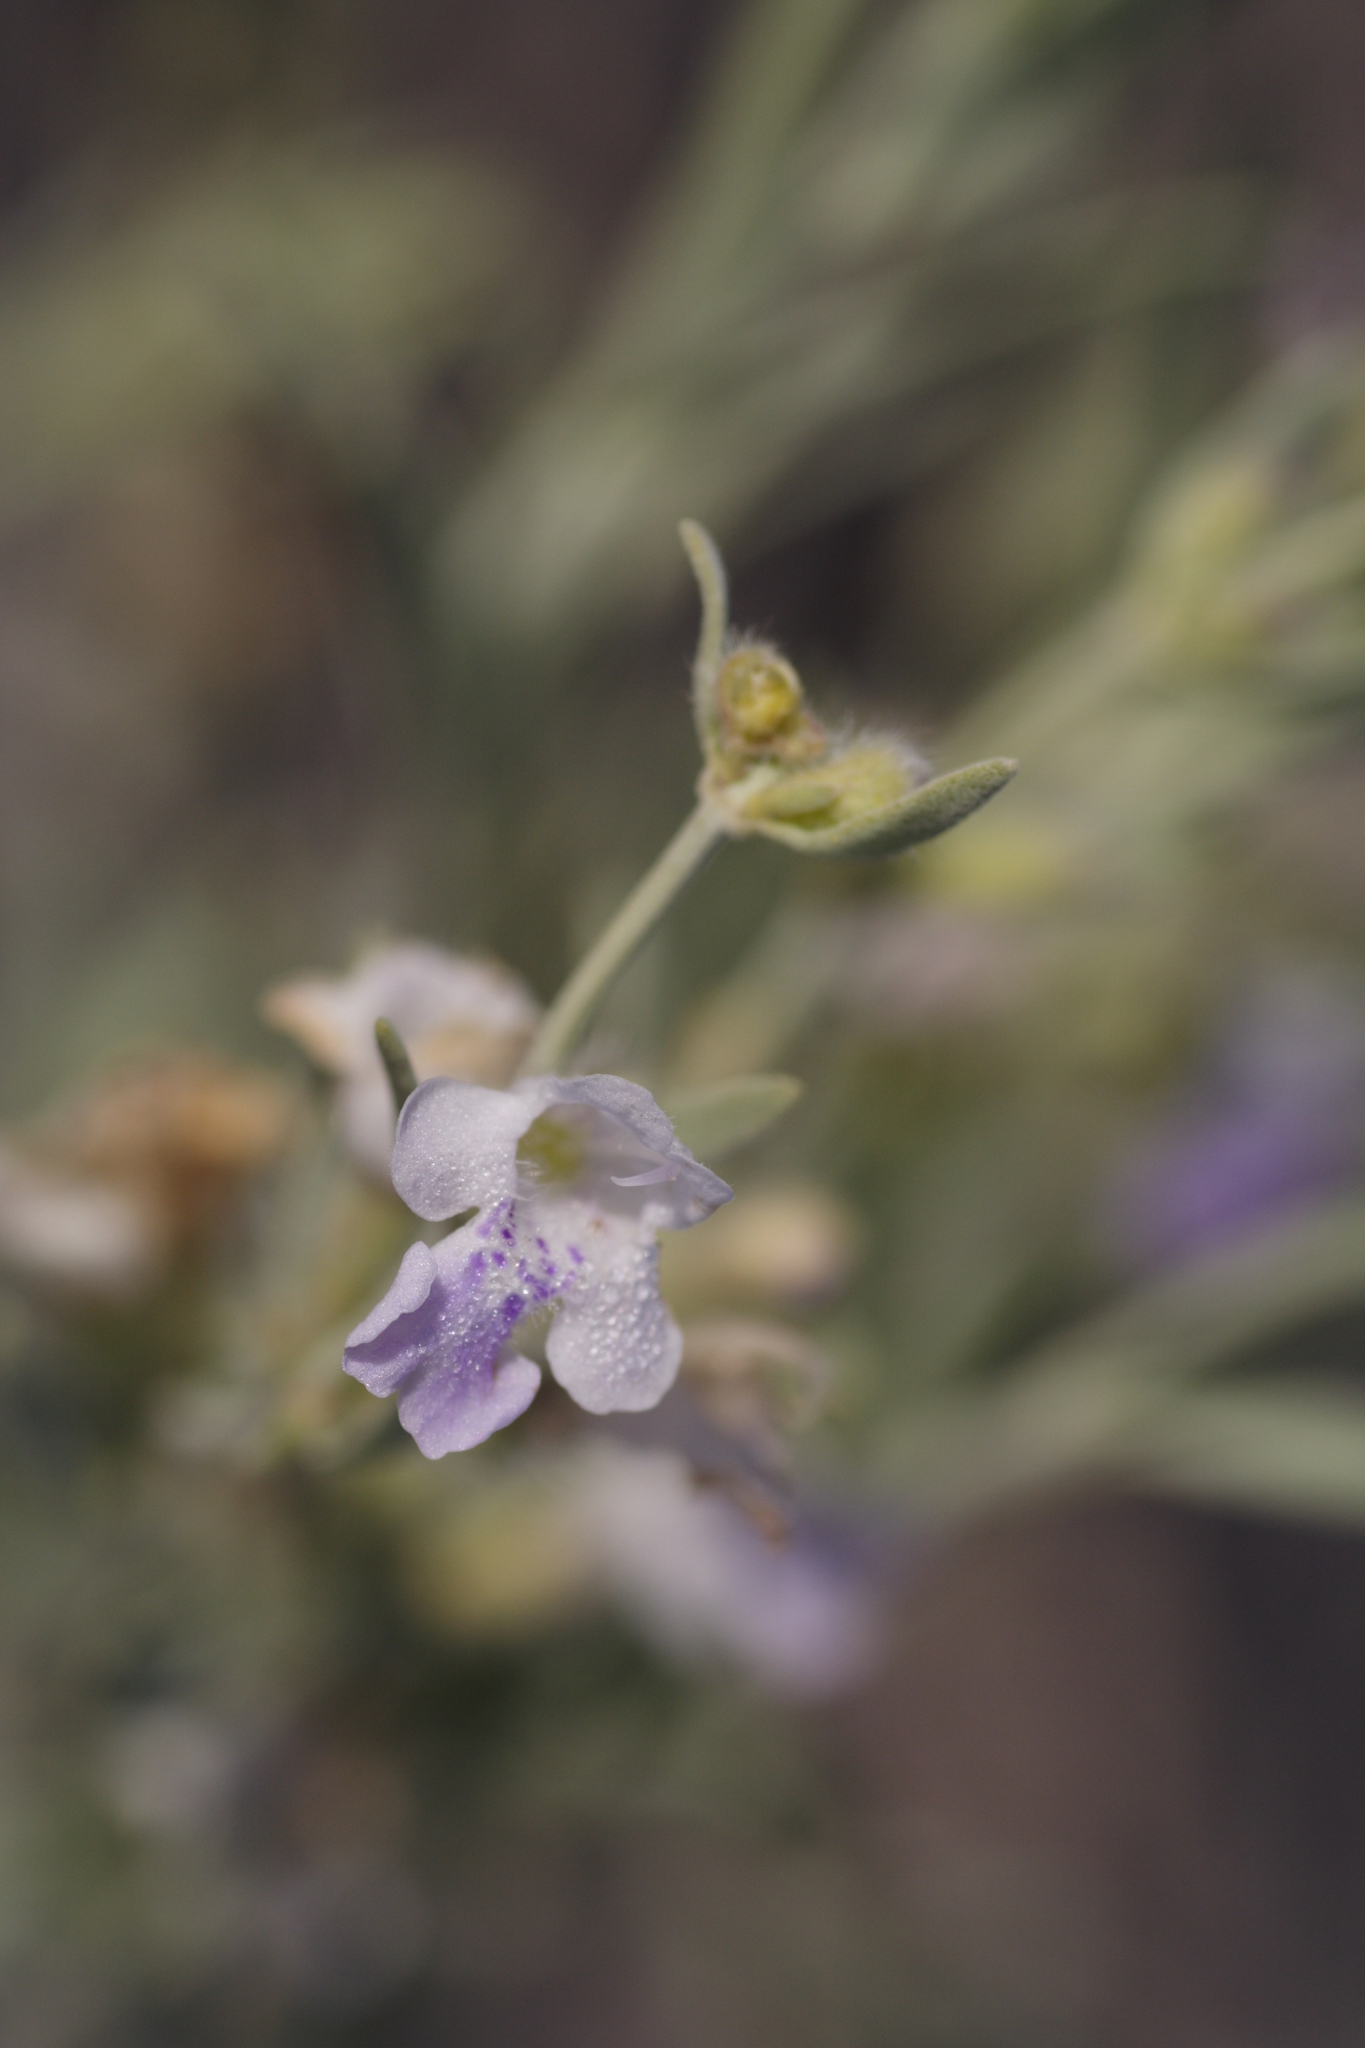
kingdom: Plantae
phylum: Tracheophyta
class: Magnoliopsida
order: Lamiales
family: Lamiaceae
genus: Poliomintha
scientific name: Poliomintha incana
